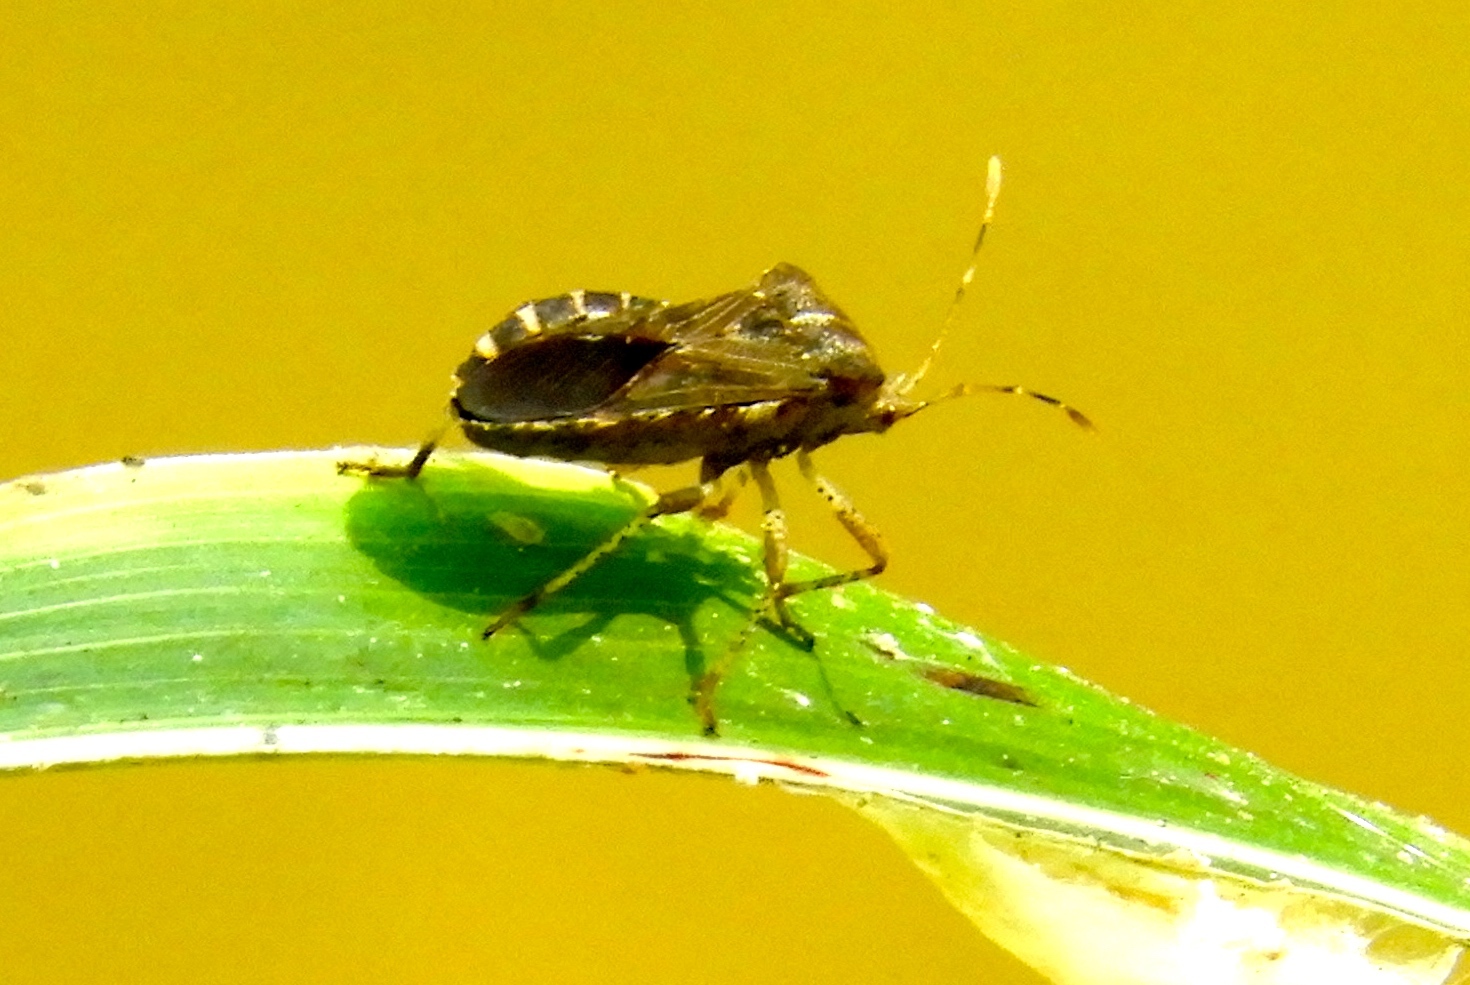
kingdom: Animalia
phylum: Arthropoda
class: Insecta
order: Hemiptera
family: Coreidae
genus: Anasa
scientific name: Anasa scorbutica
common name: Squash bug
